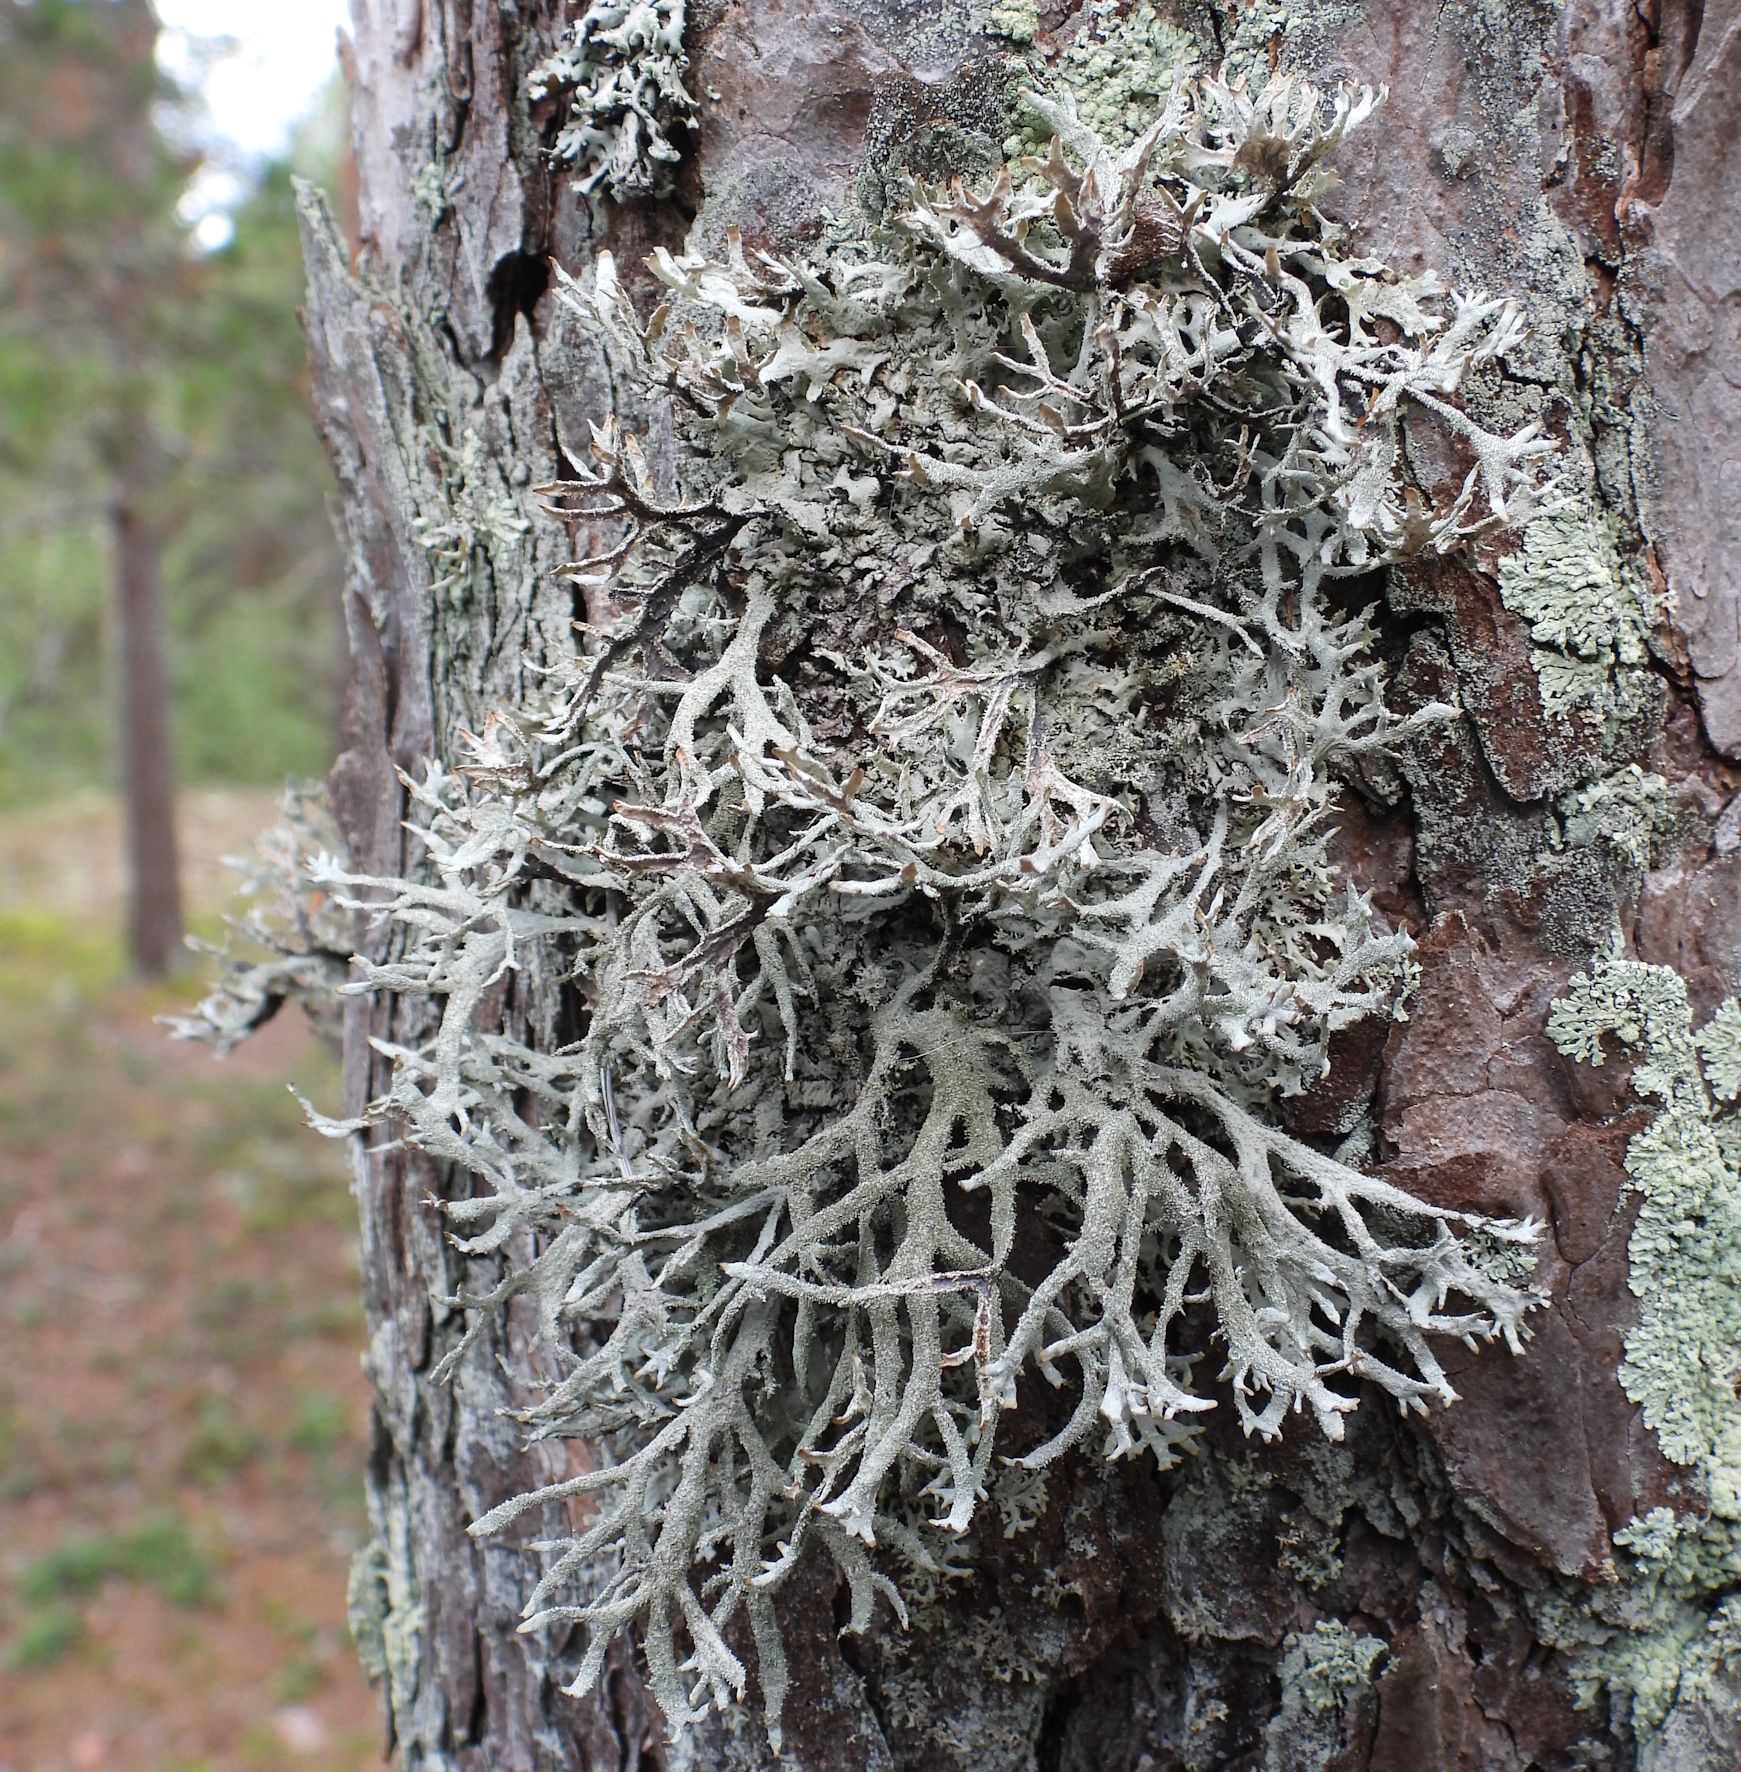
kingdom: Fungi
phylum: Ascomycota
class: Lecanoromycetes
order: Lecanorales
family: Parmeliaceae
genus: Pseudevernia
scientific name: Pseudevernia furfuracea
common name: Tree moss
